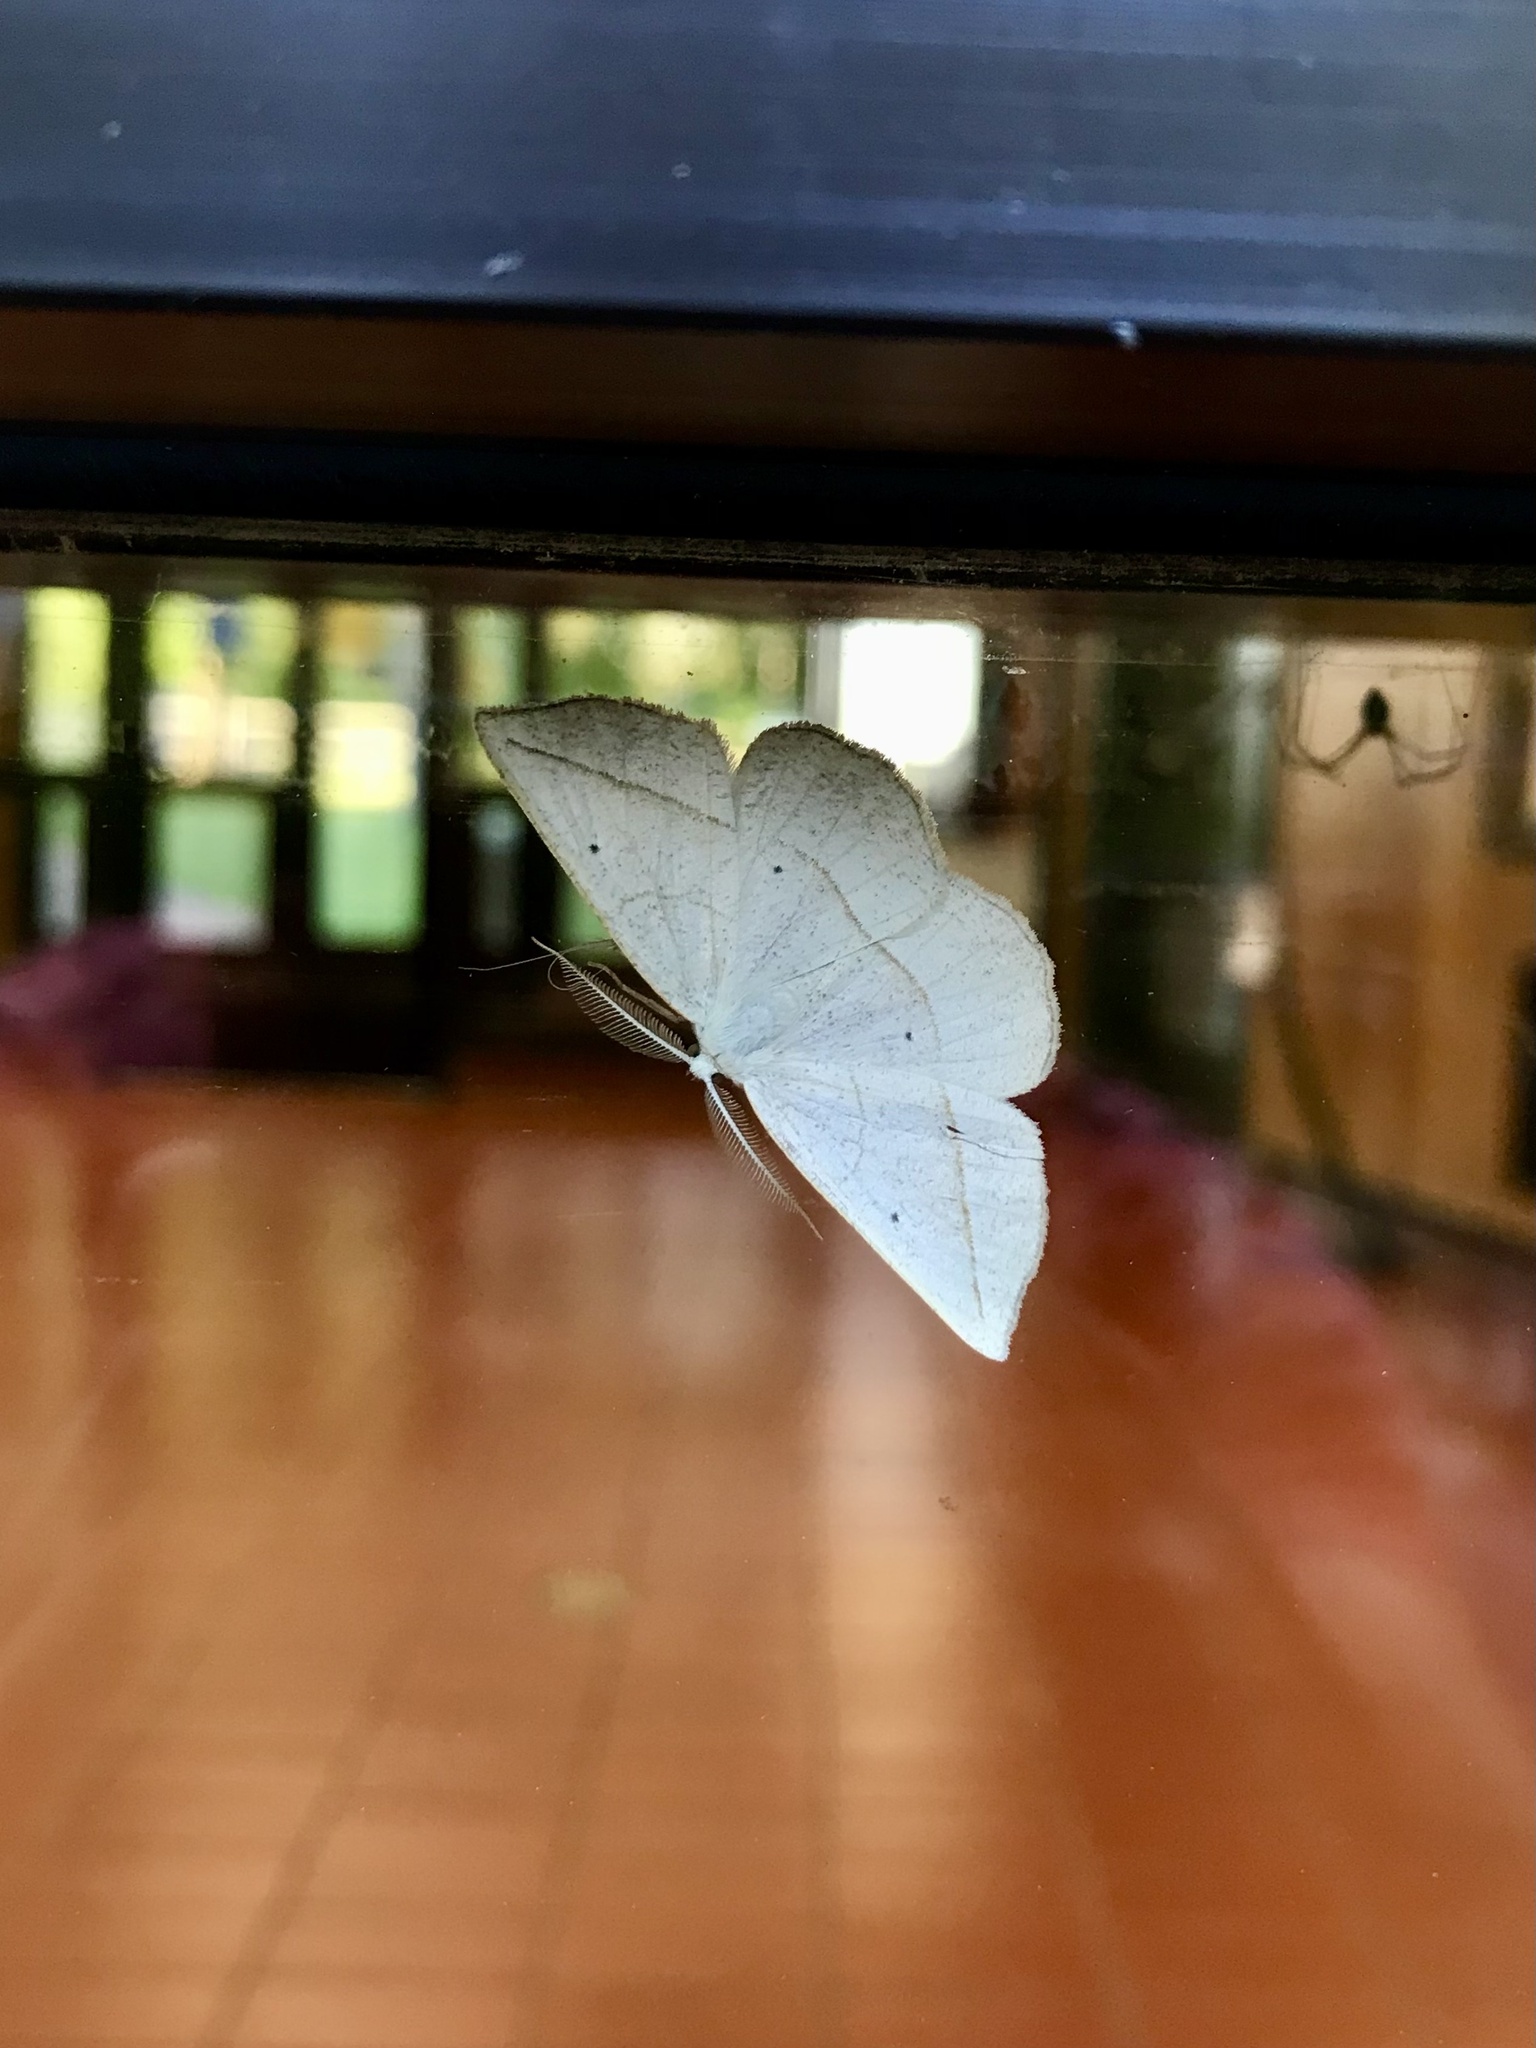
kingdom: Animalia
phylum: Arthropoda
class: Insecta
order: Lepidoptera
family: Geometridae
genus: Eusarca
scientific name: Eusarca confusaria
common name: Confused eusarca
